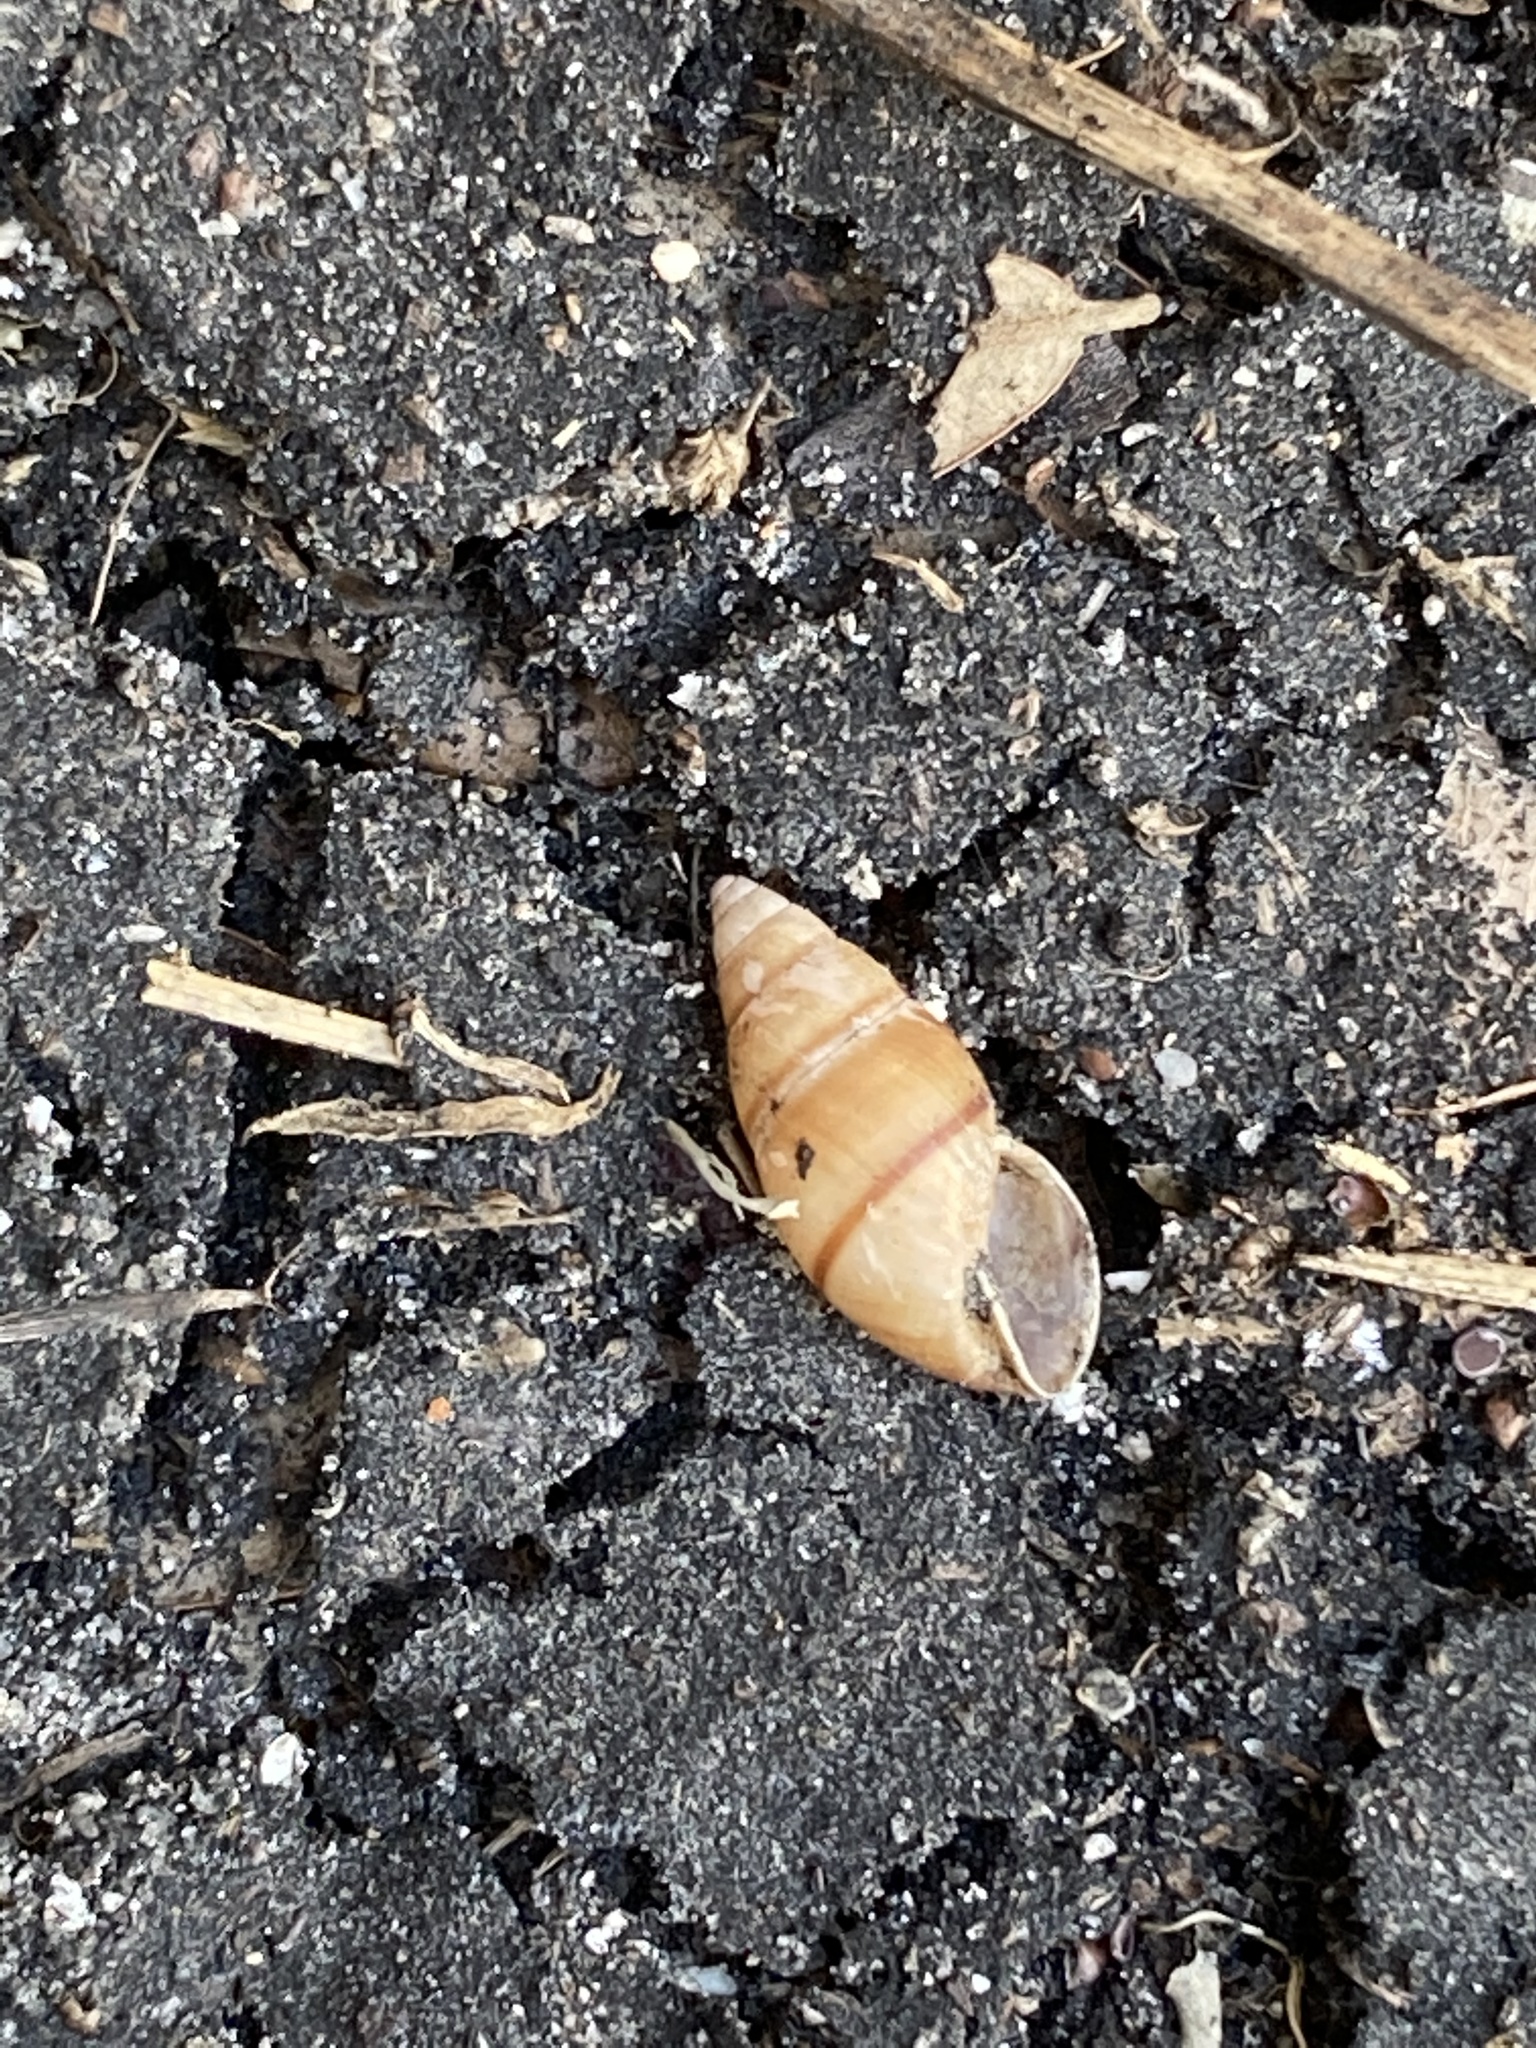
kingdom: Animalia
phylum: Mollusca
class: Gastropoda
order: Stylommatophora
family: Bulimulidae
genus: Bulimulus
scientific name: Bulimulus guadalupensis
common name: West indian bulimulus
